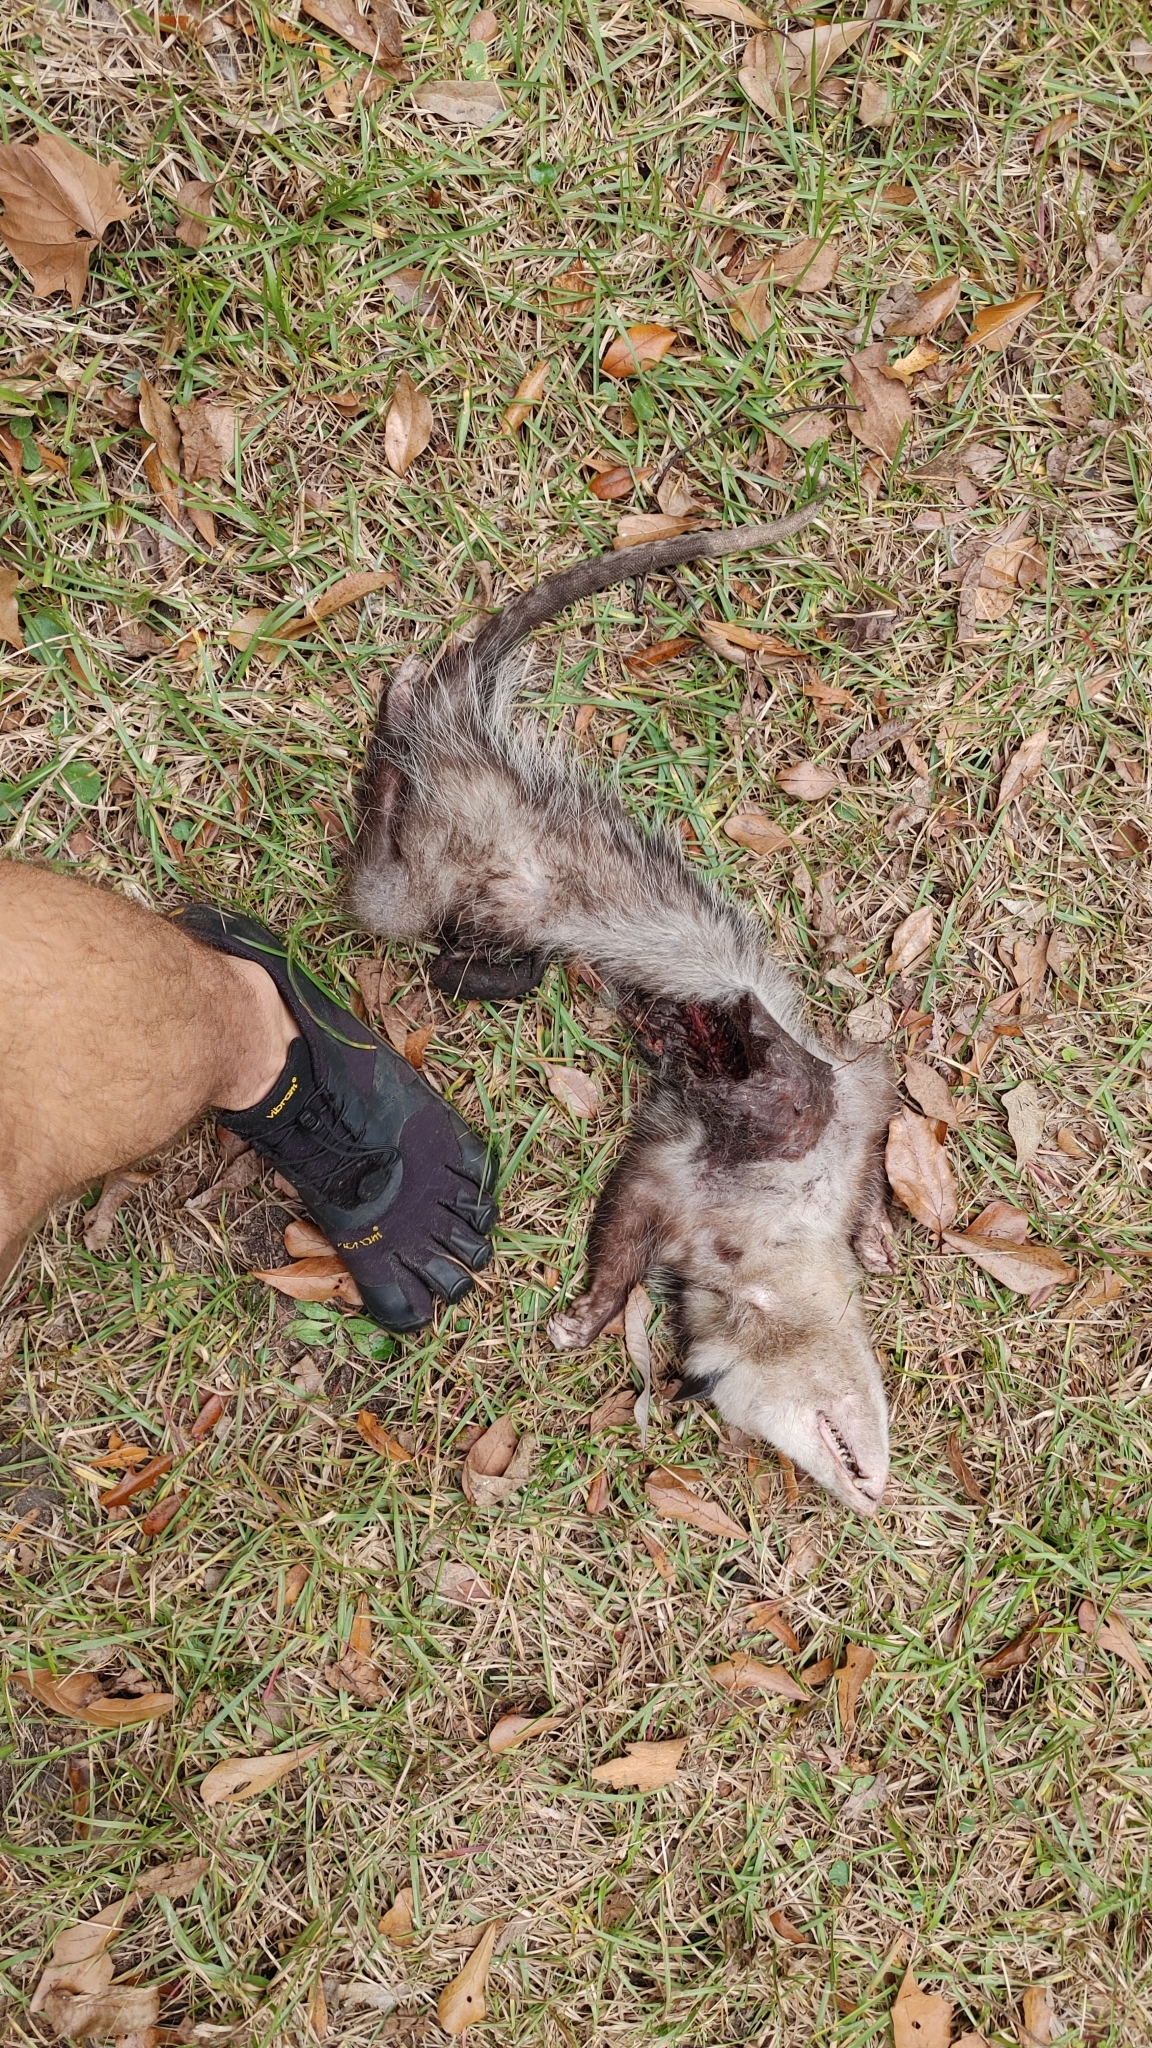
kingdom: Animalia
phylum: Chordata
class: Mammalia
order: Didelphimorphia
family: Didelphidae
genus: Didelphis
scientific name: Didelphis virginiana
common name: Virginia opossum
